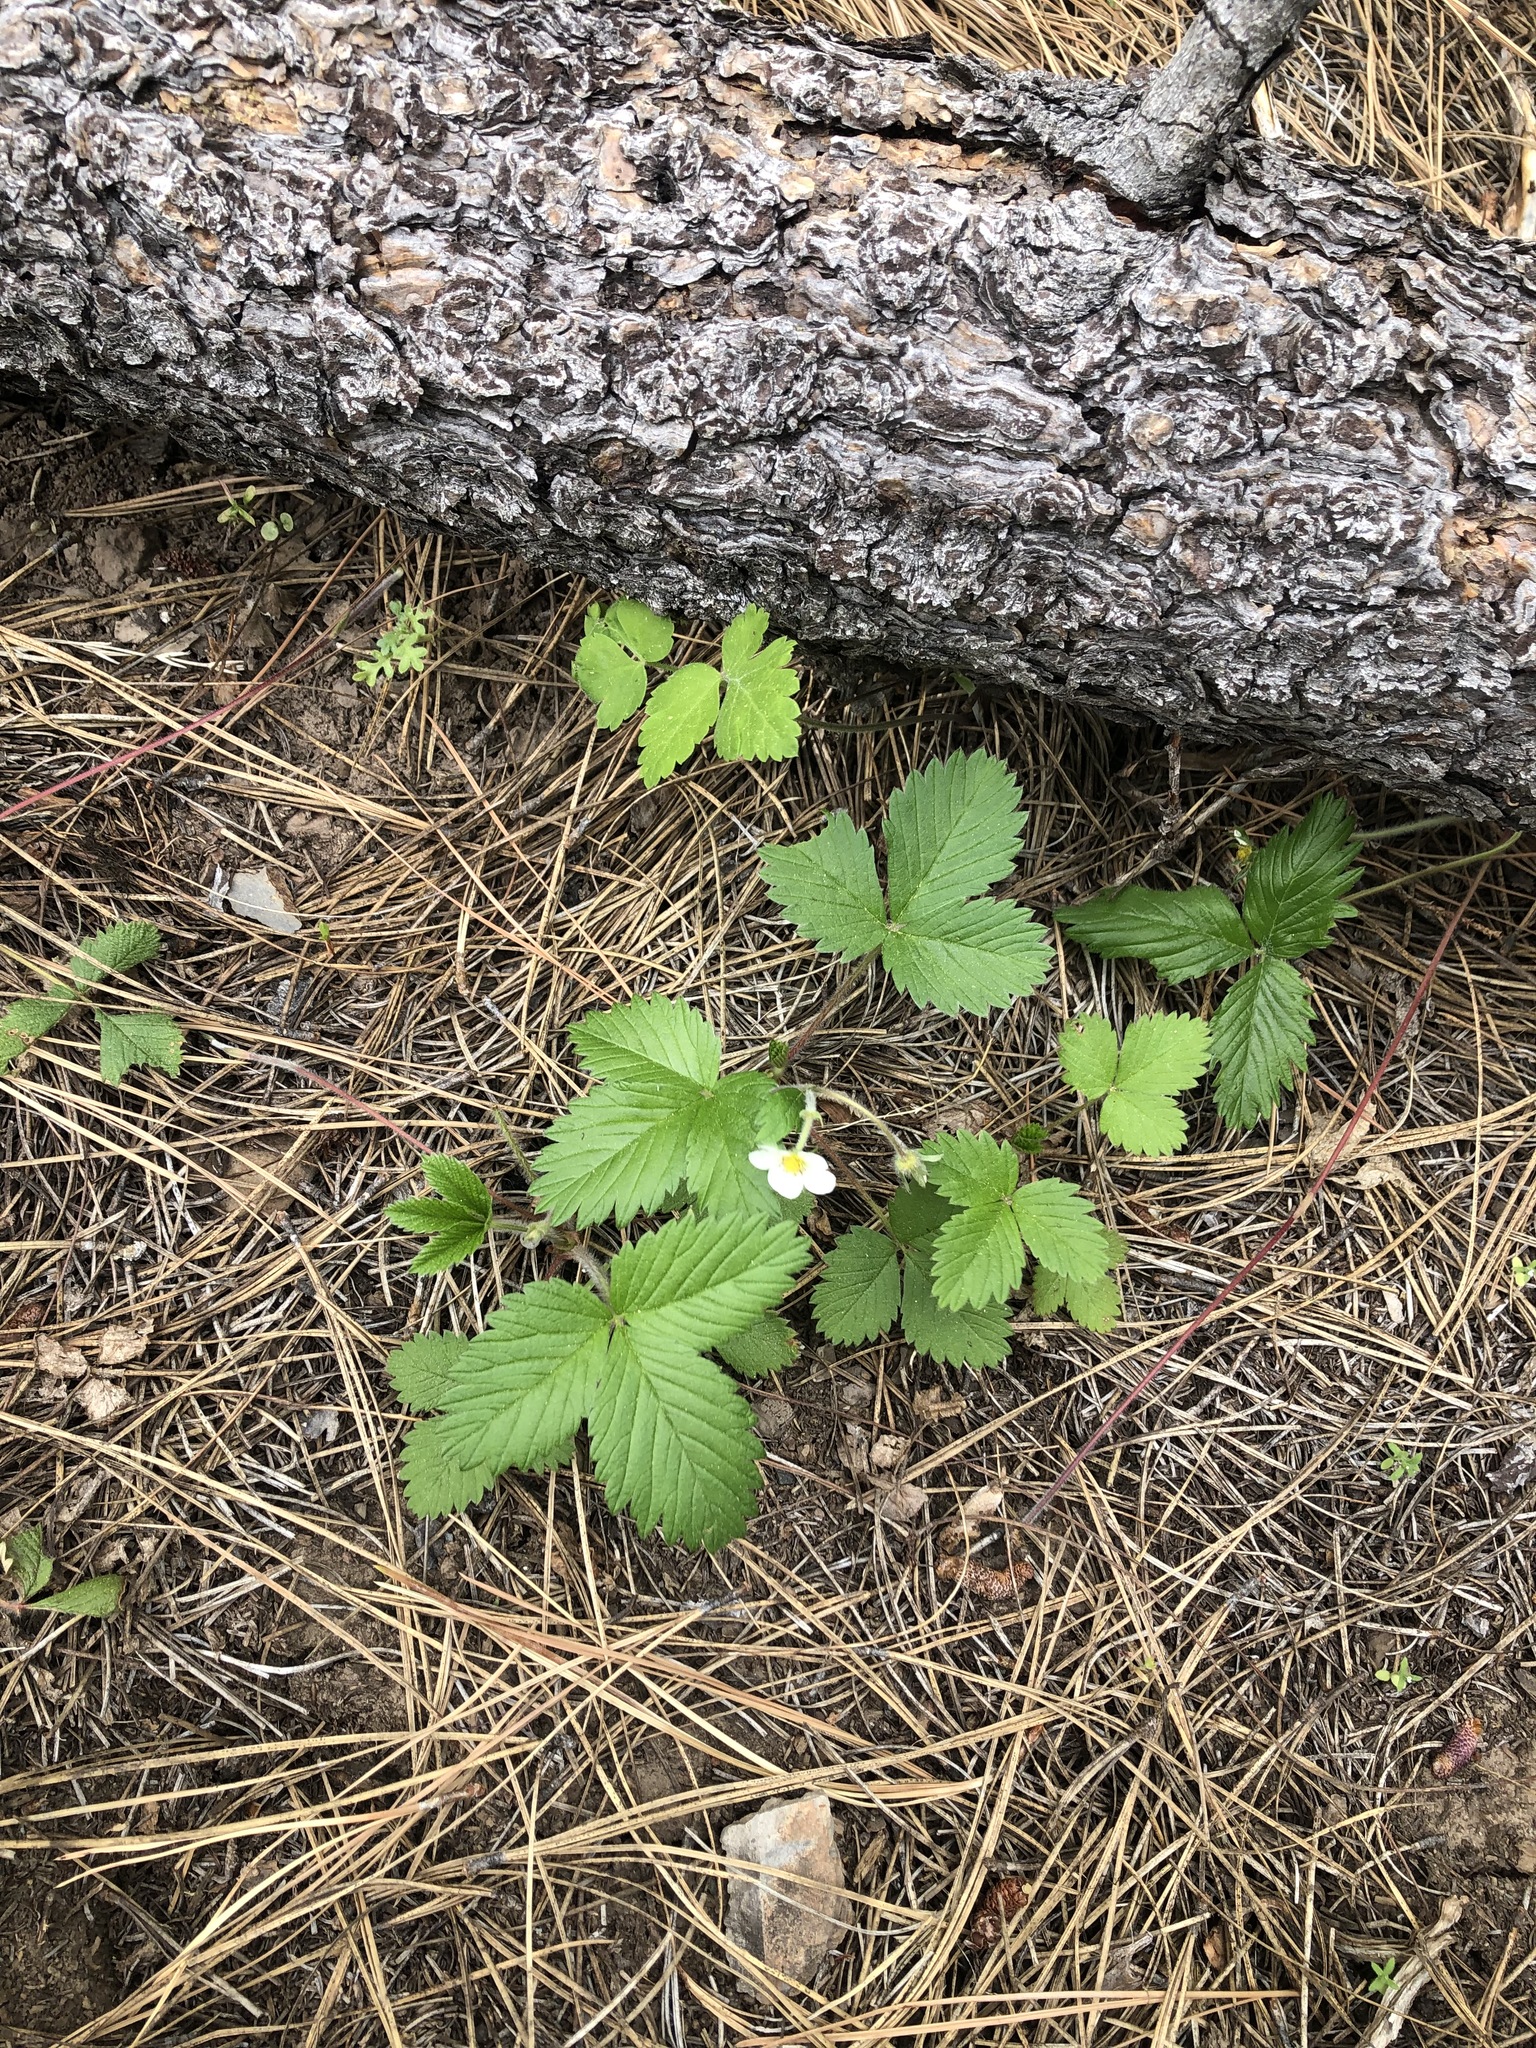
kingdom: Plantae
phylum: Tracheophyta
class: Magnoliopsida
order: Rosales
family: Rosaceae
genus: Fragaria
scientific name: Fragaria vesca
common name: Wild strawberry
